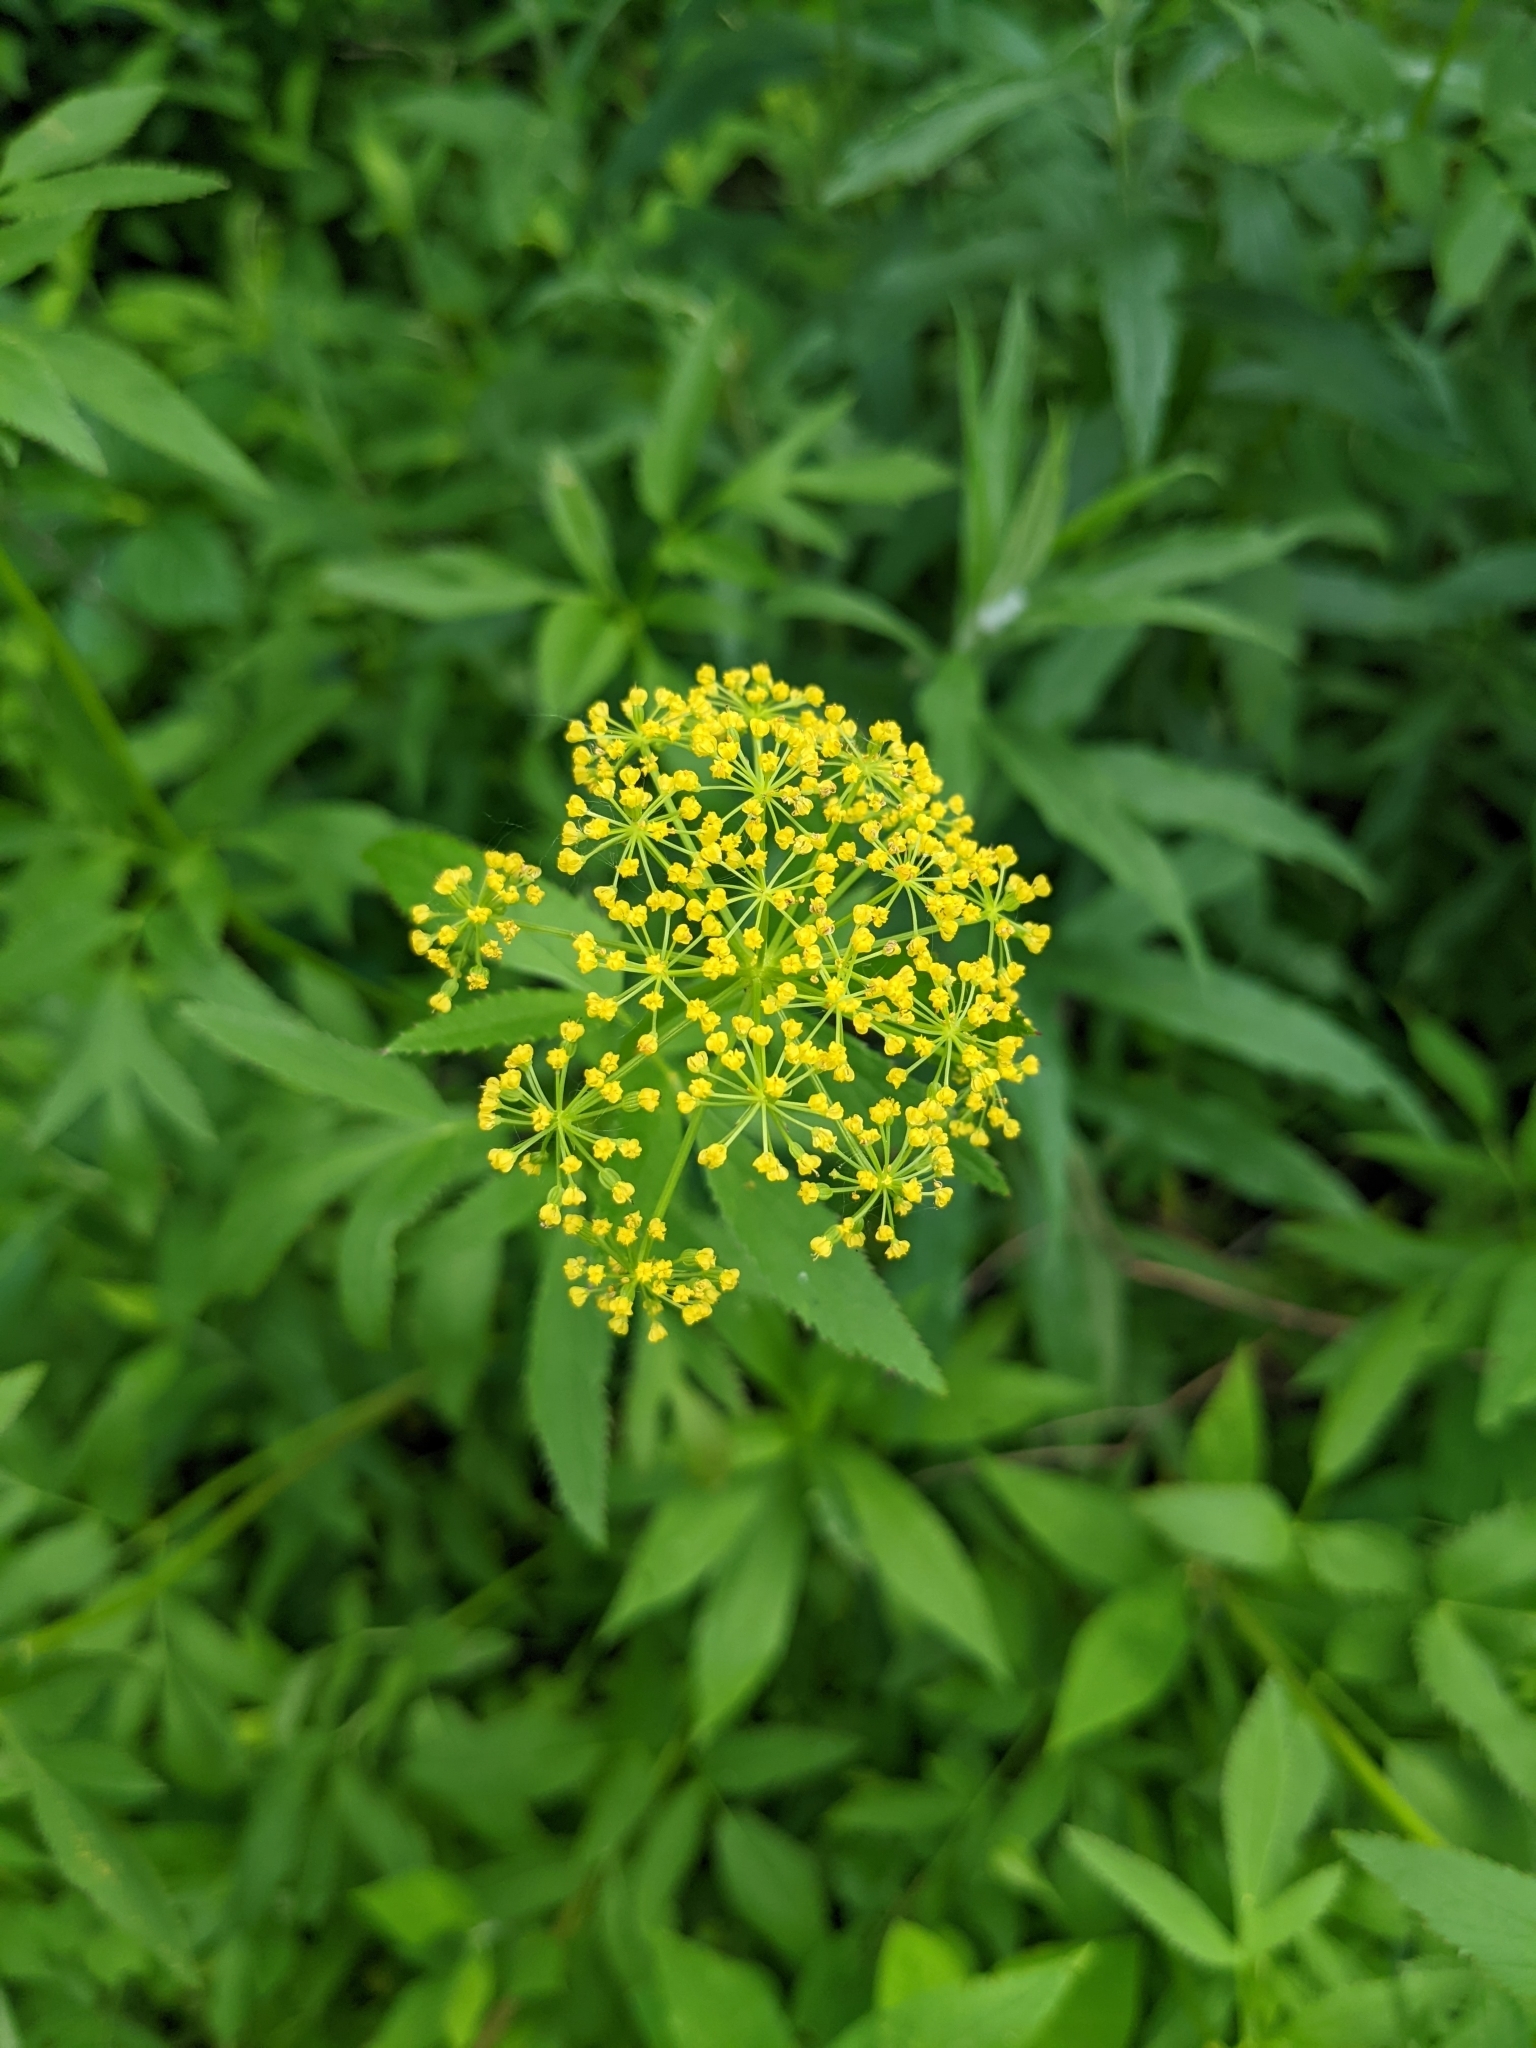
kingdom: Plantae
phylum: Tracheophyta
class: Magnoliopsida
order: Apiales
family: Apiaceae
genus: Zizia
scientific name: Zizia aurea
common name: Golden alexanders
